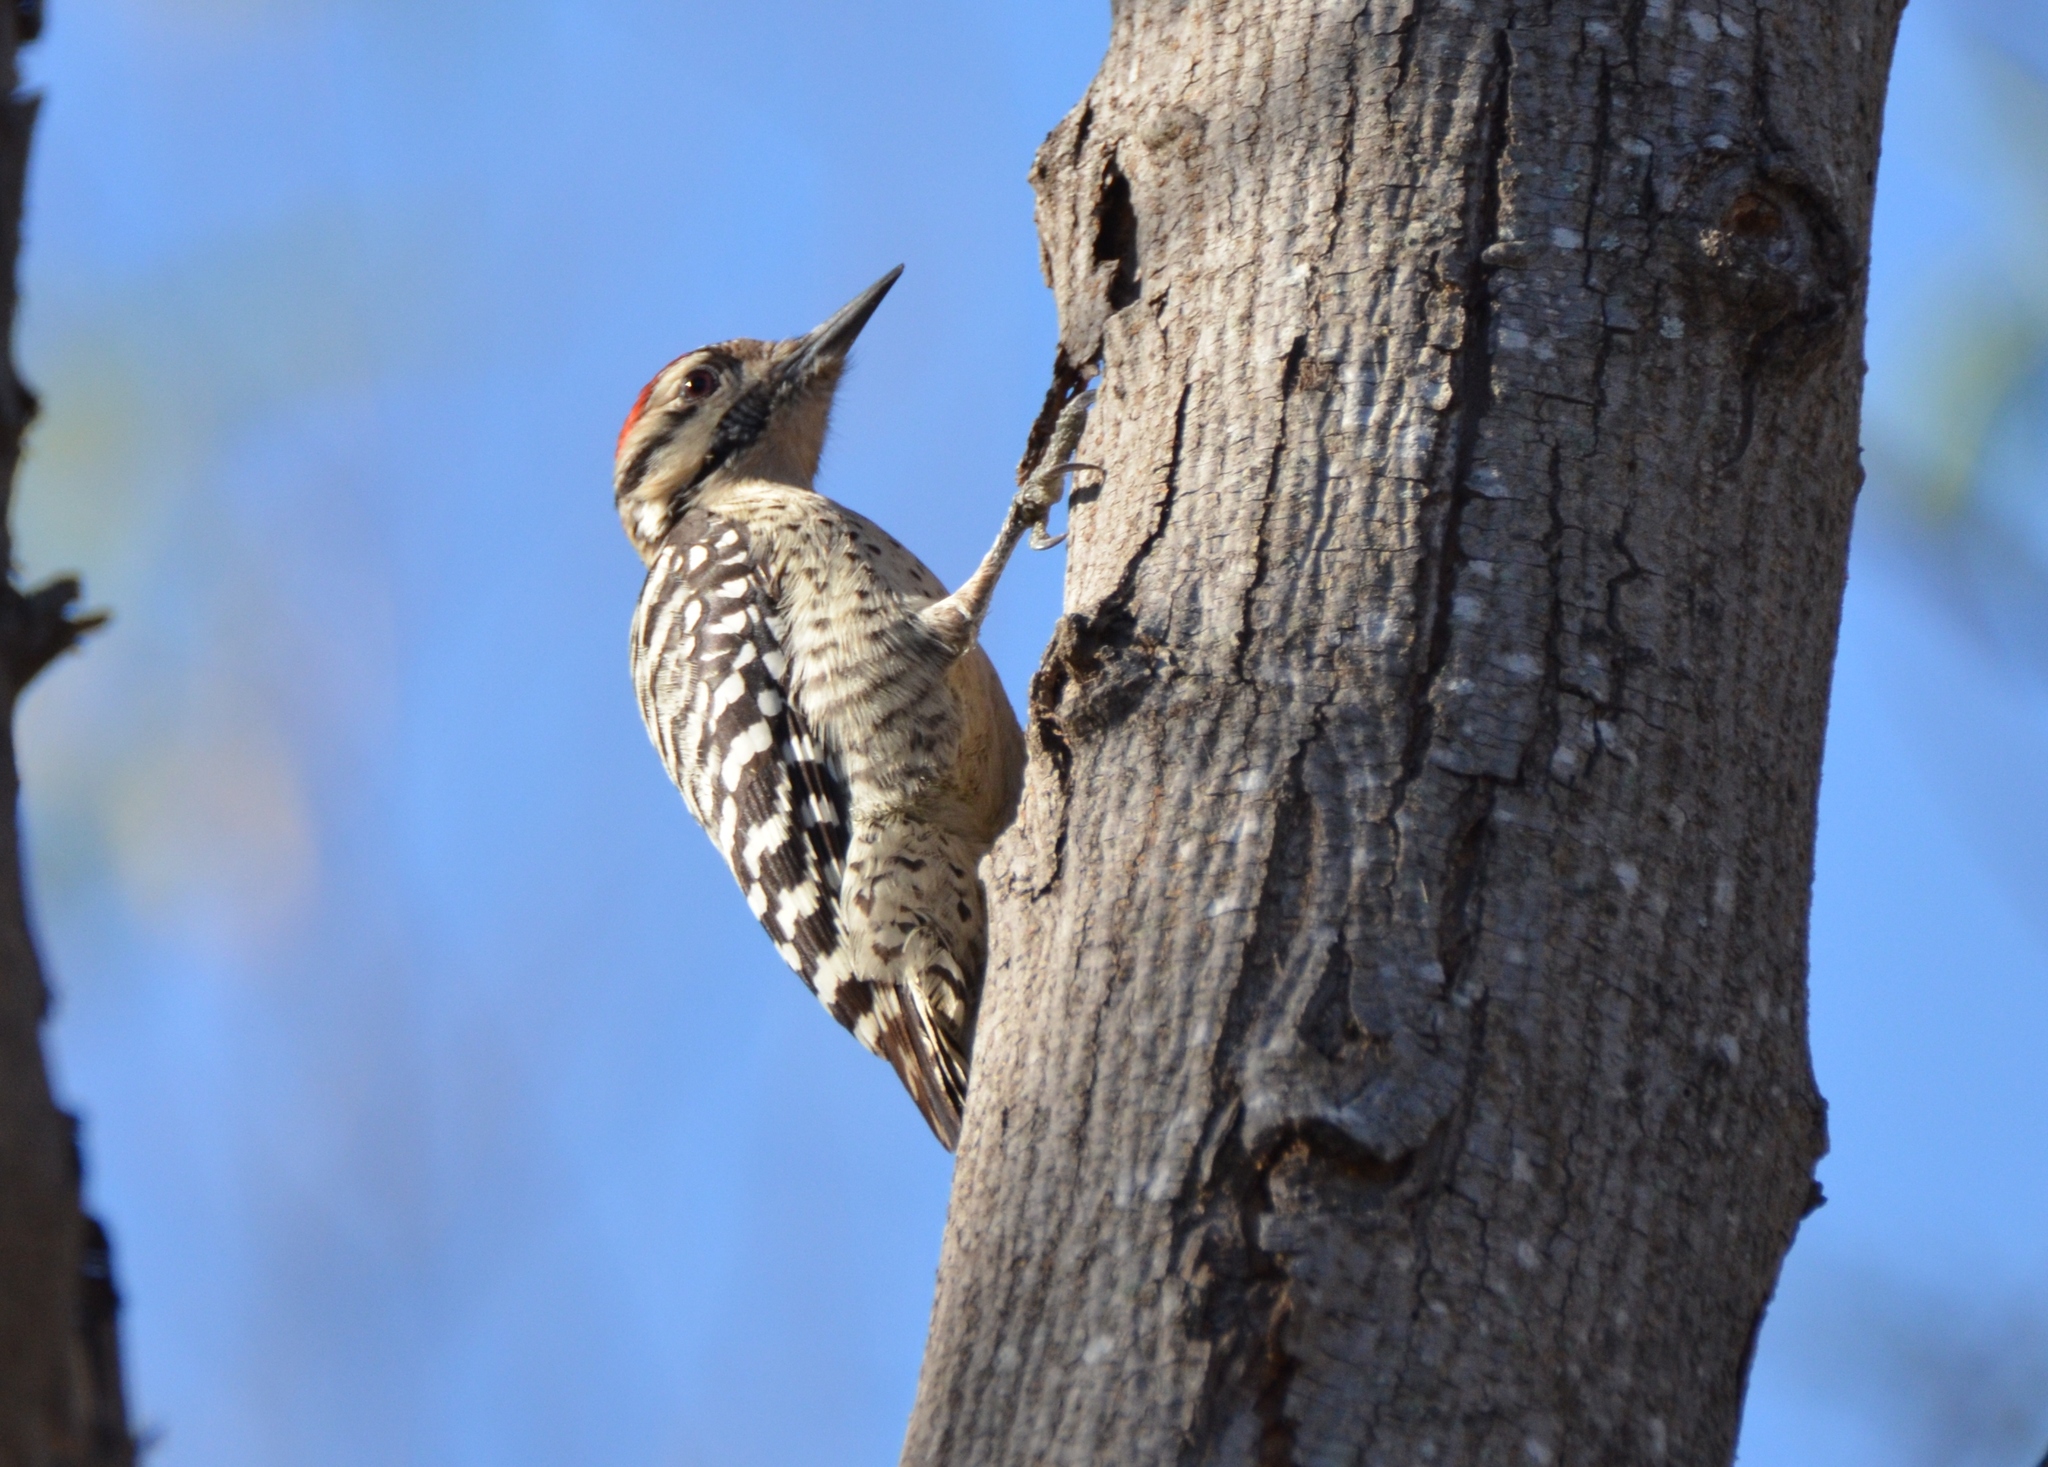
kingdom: Animalia
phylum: Chordata
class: Aves
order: Piciformes
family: Picidae
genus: Dryobates
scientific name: Dryobates scalaris
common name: Ladder-backed woodpecker
